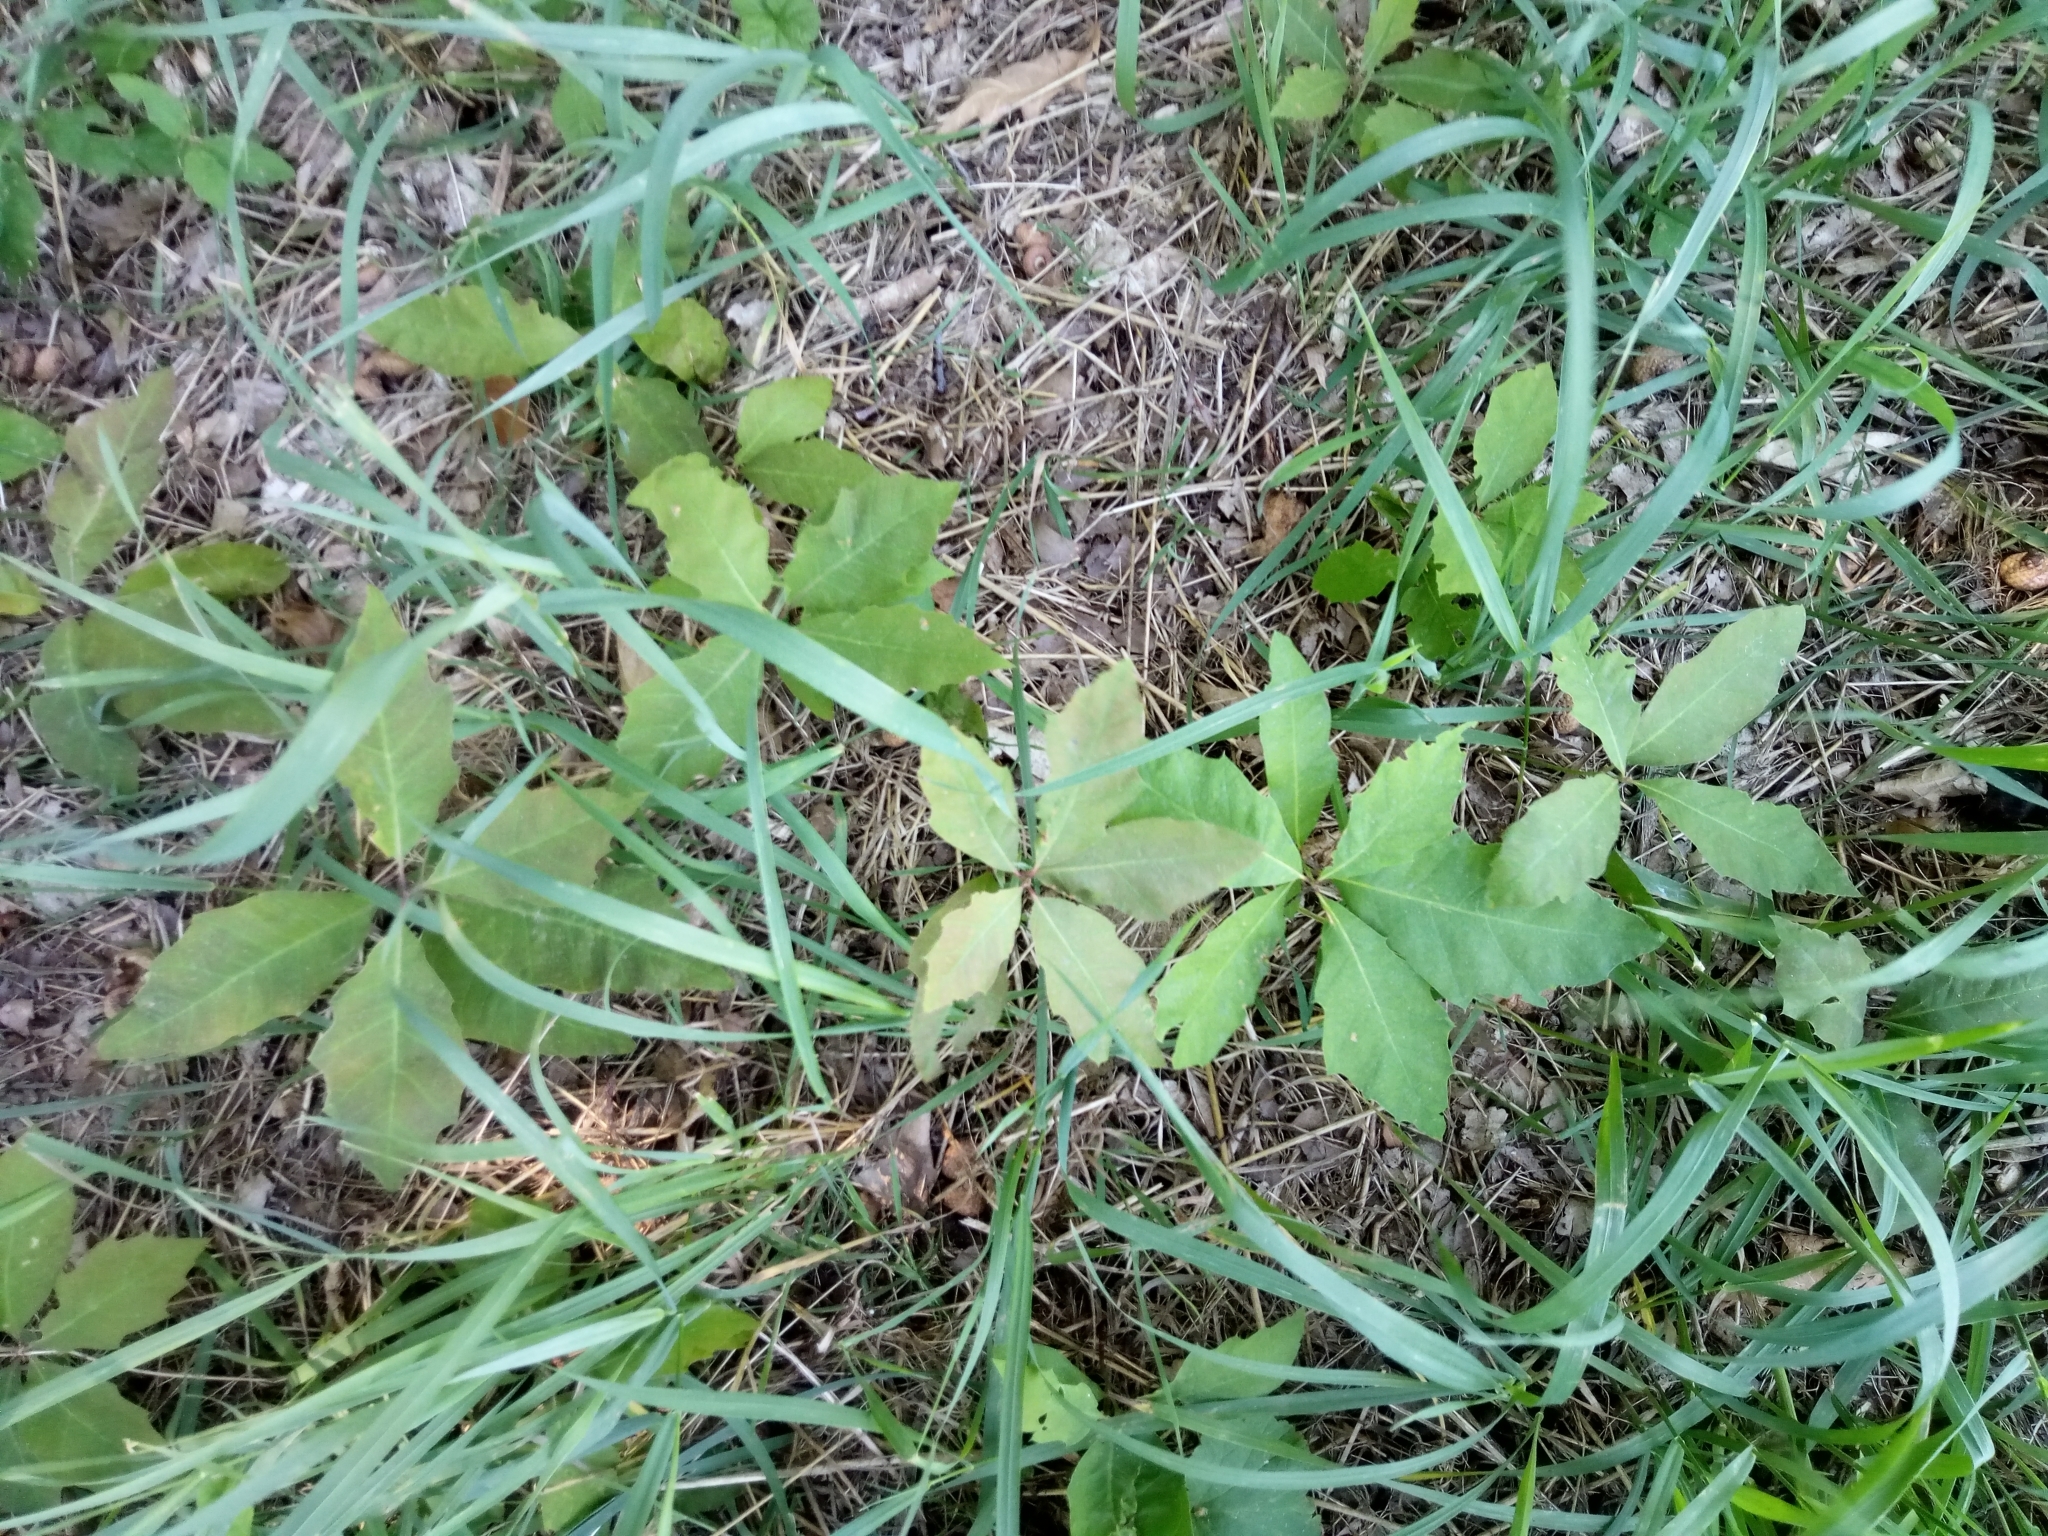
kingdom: Plantae
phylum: Tracheophyta
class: Magnoliopsida
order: Fagales
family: Fagaceae
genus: Quercus
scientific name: Quercus rubra
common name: Red oak
